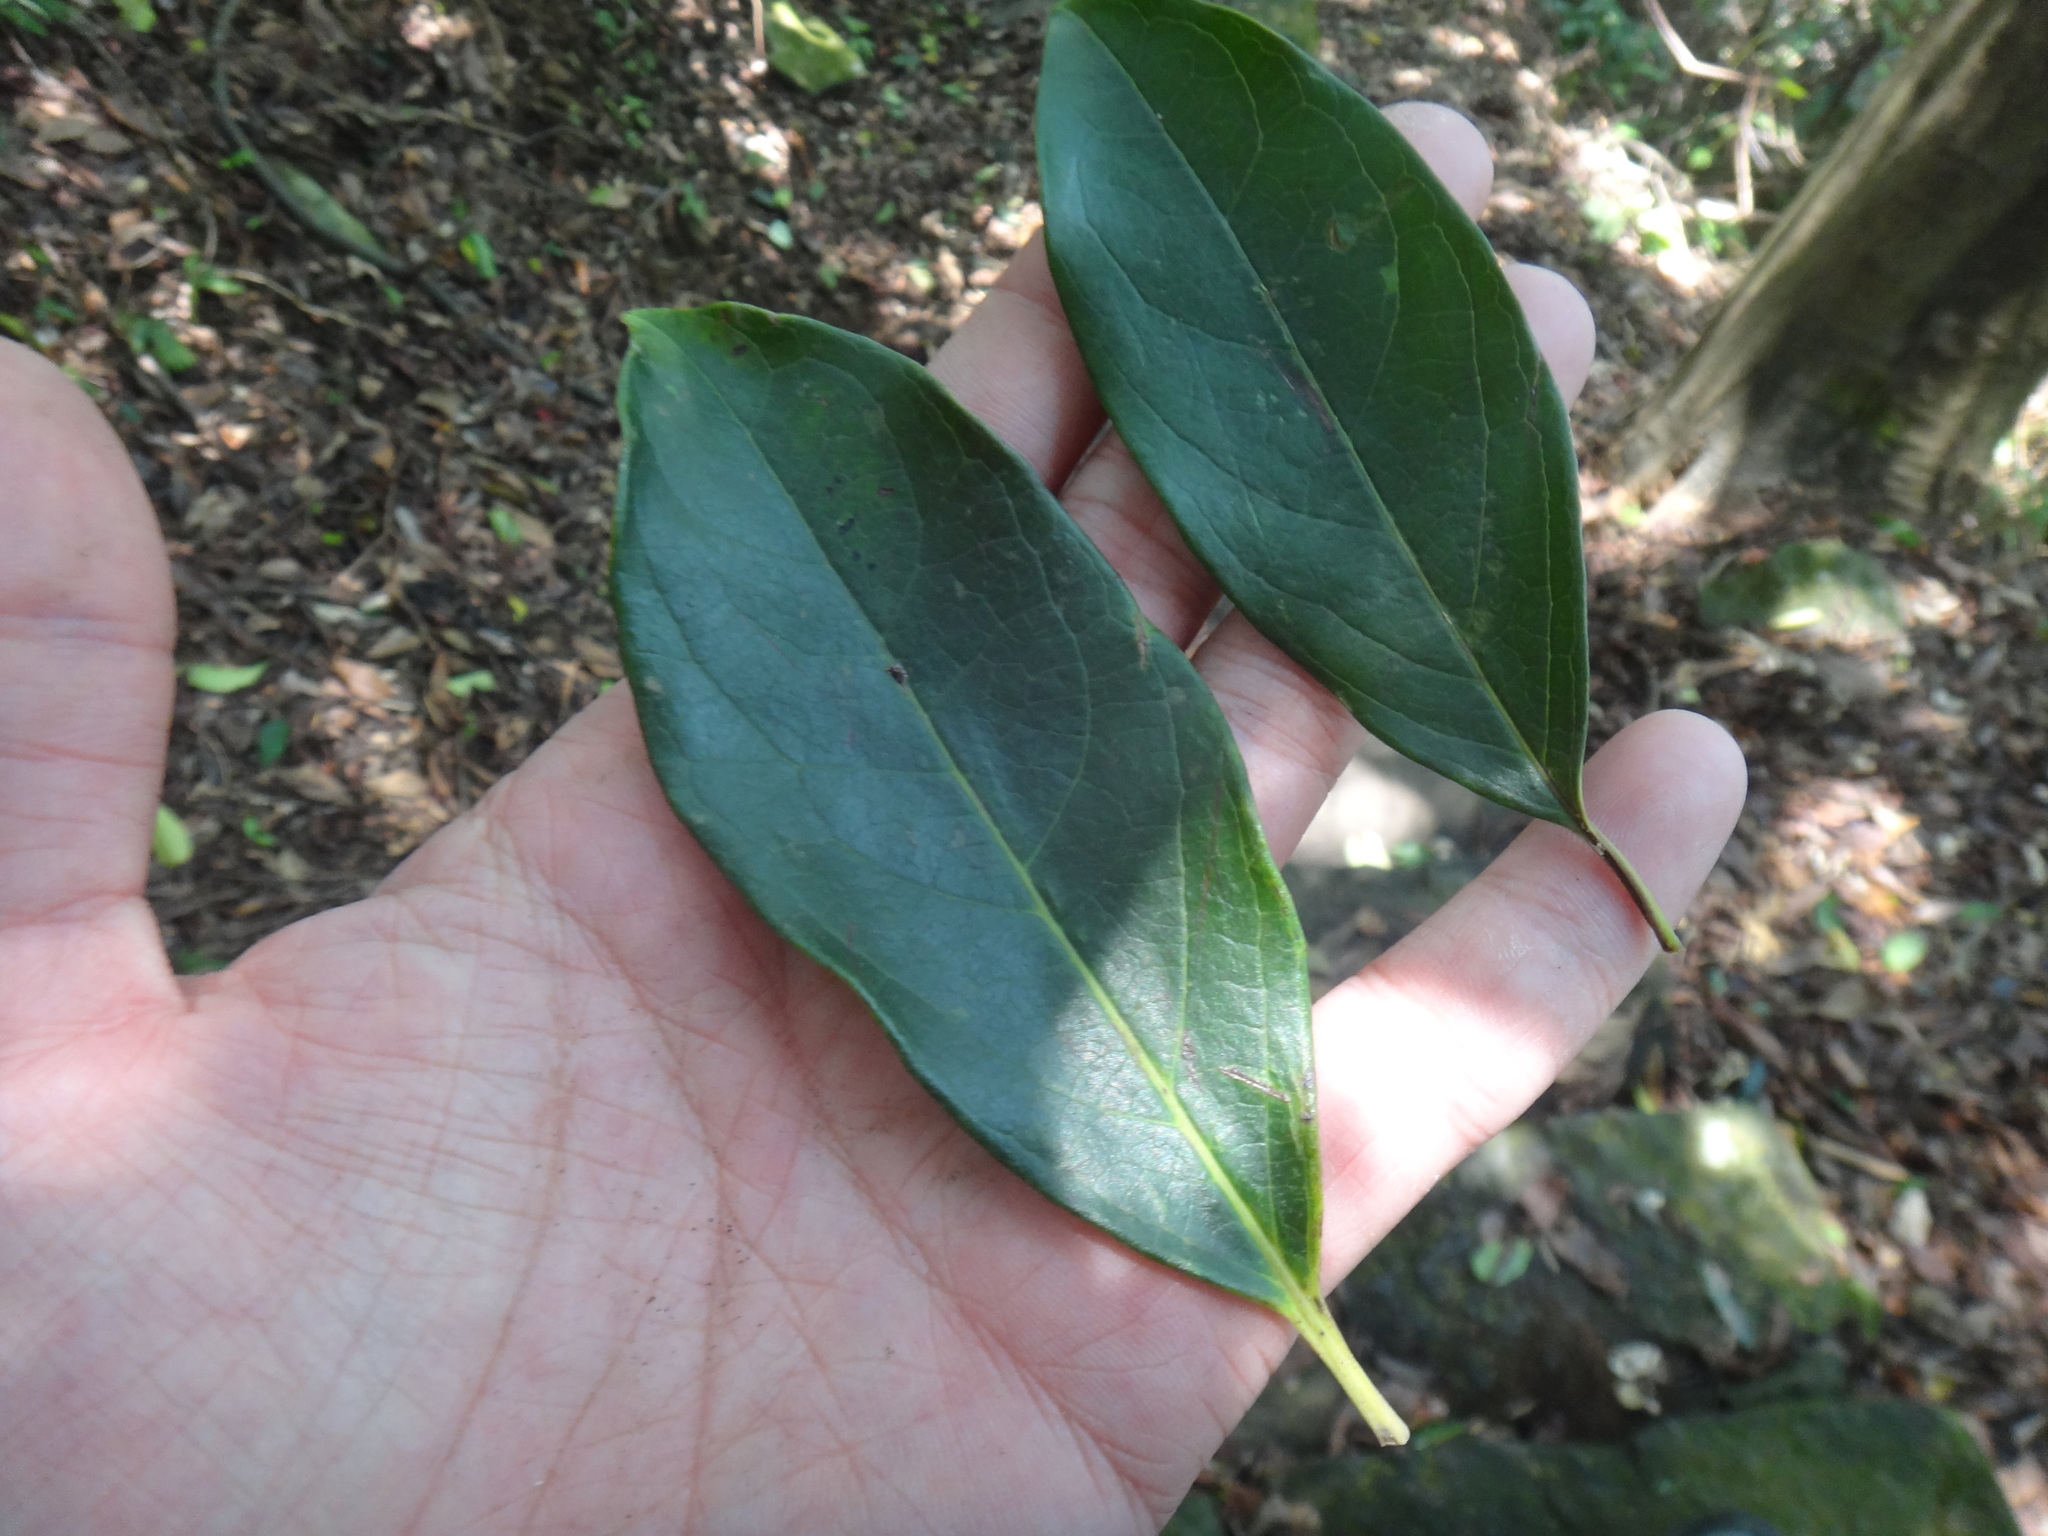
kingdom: Plantae
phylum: Tracheophyta
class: Magnoliopsida
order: Ericales
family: Ebenaceae
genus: Diospyros
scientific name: Diospyros morrisiana
